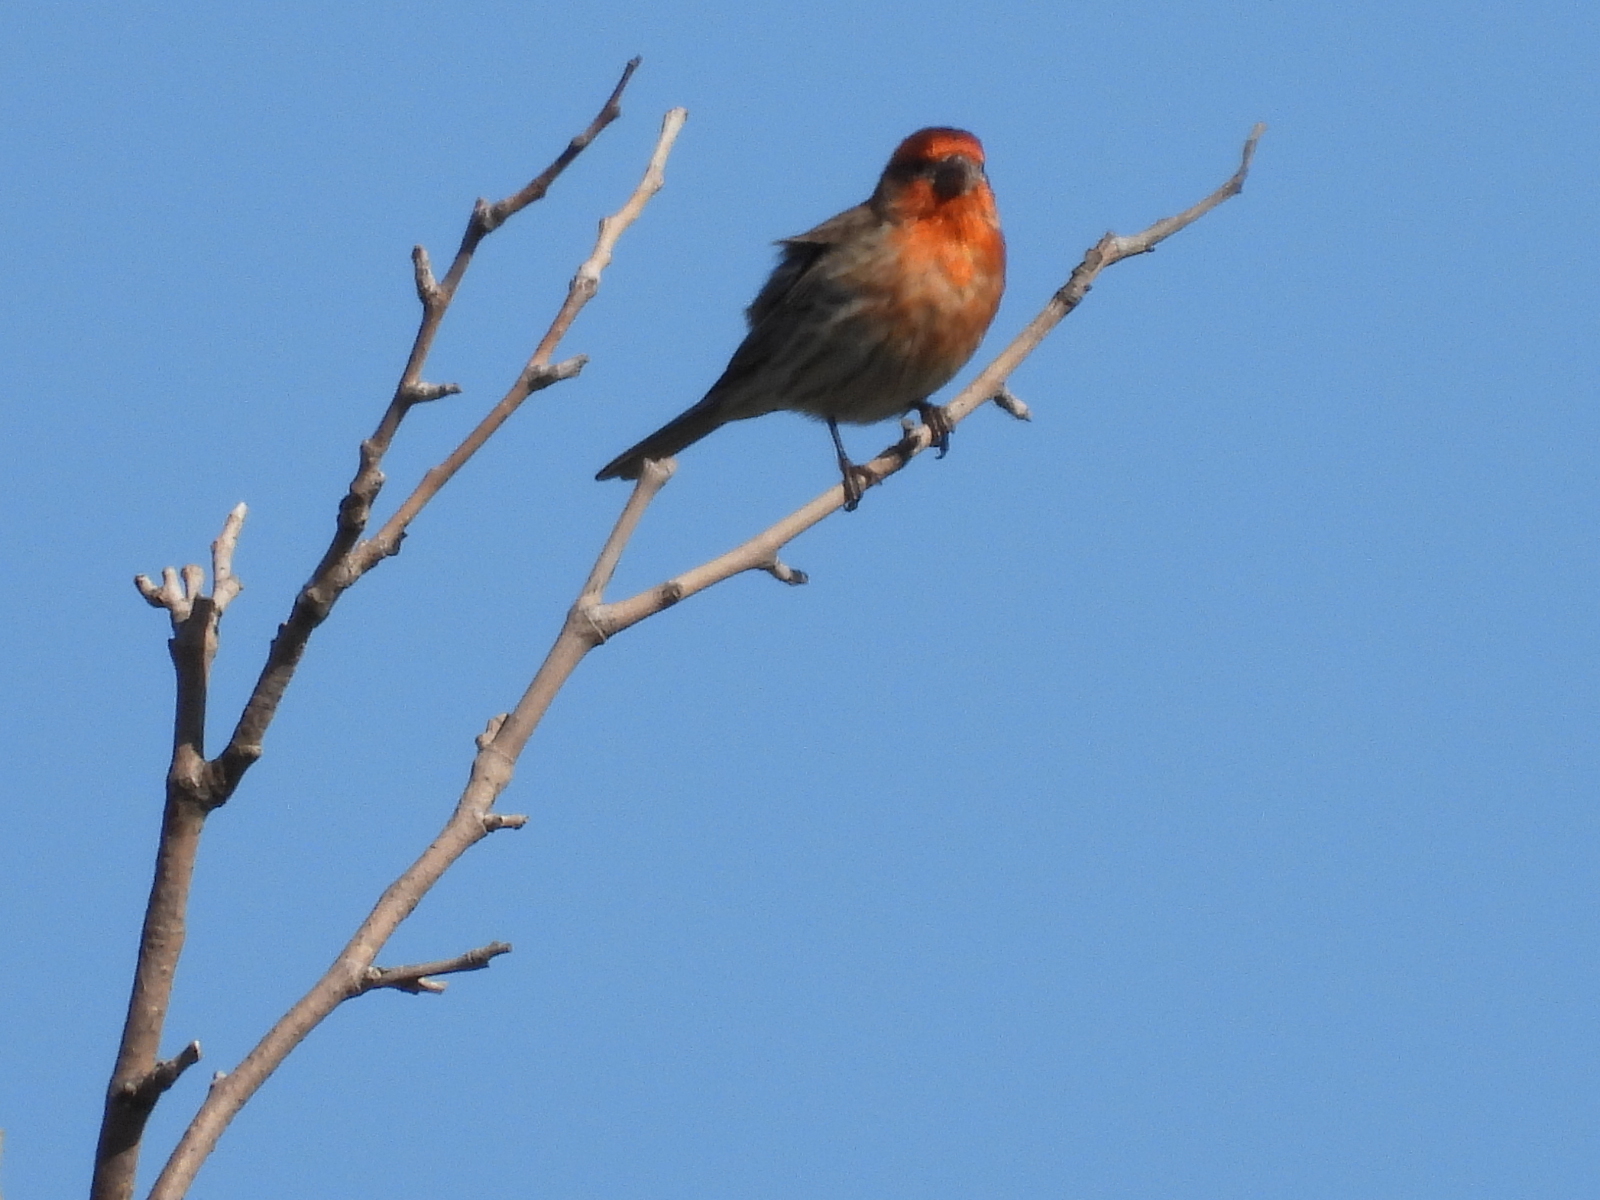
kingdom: Animalia
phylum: Chordata
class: Aves
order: Passeriformes
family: Fringillidae
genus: Haemorhous
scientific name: Haemorhous mexicanus
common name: House finch
